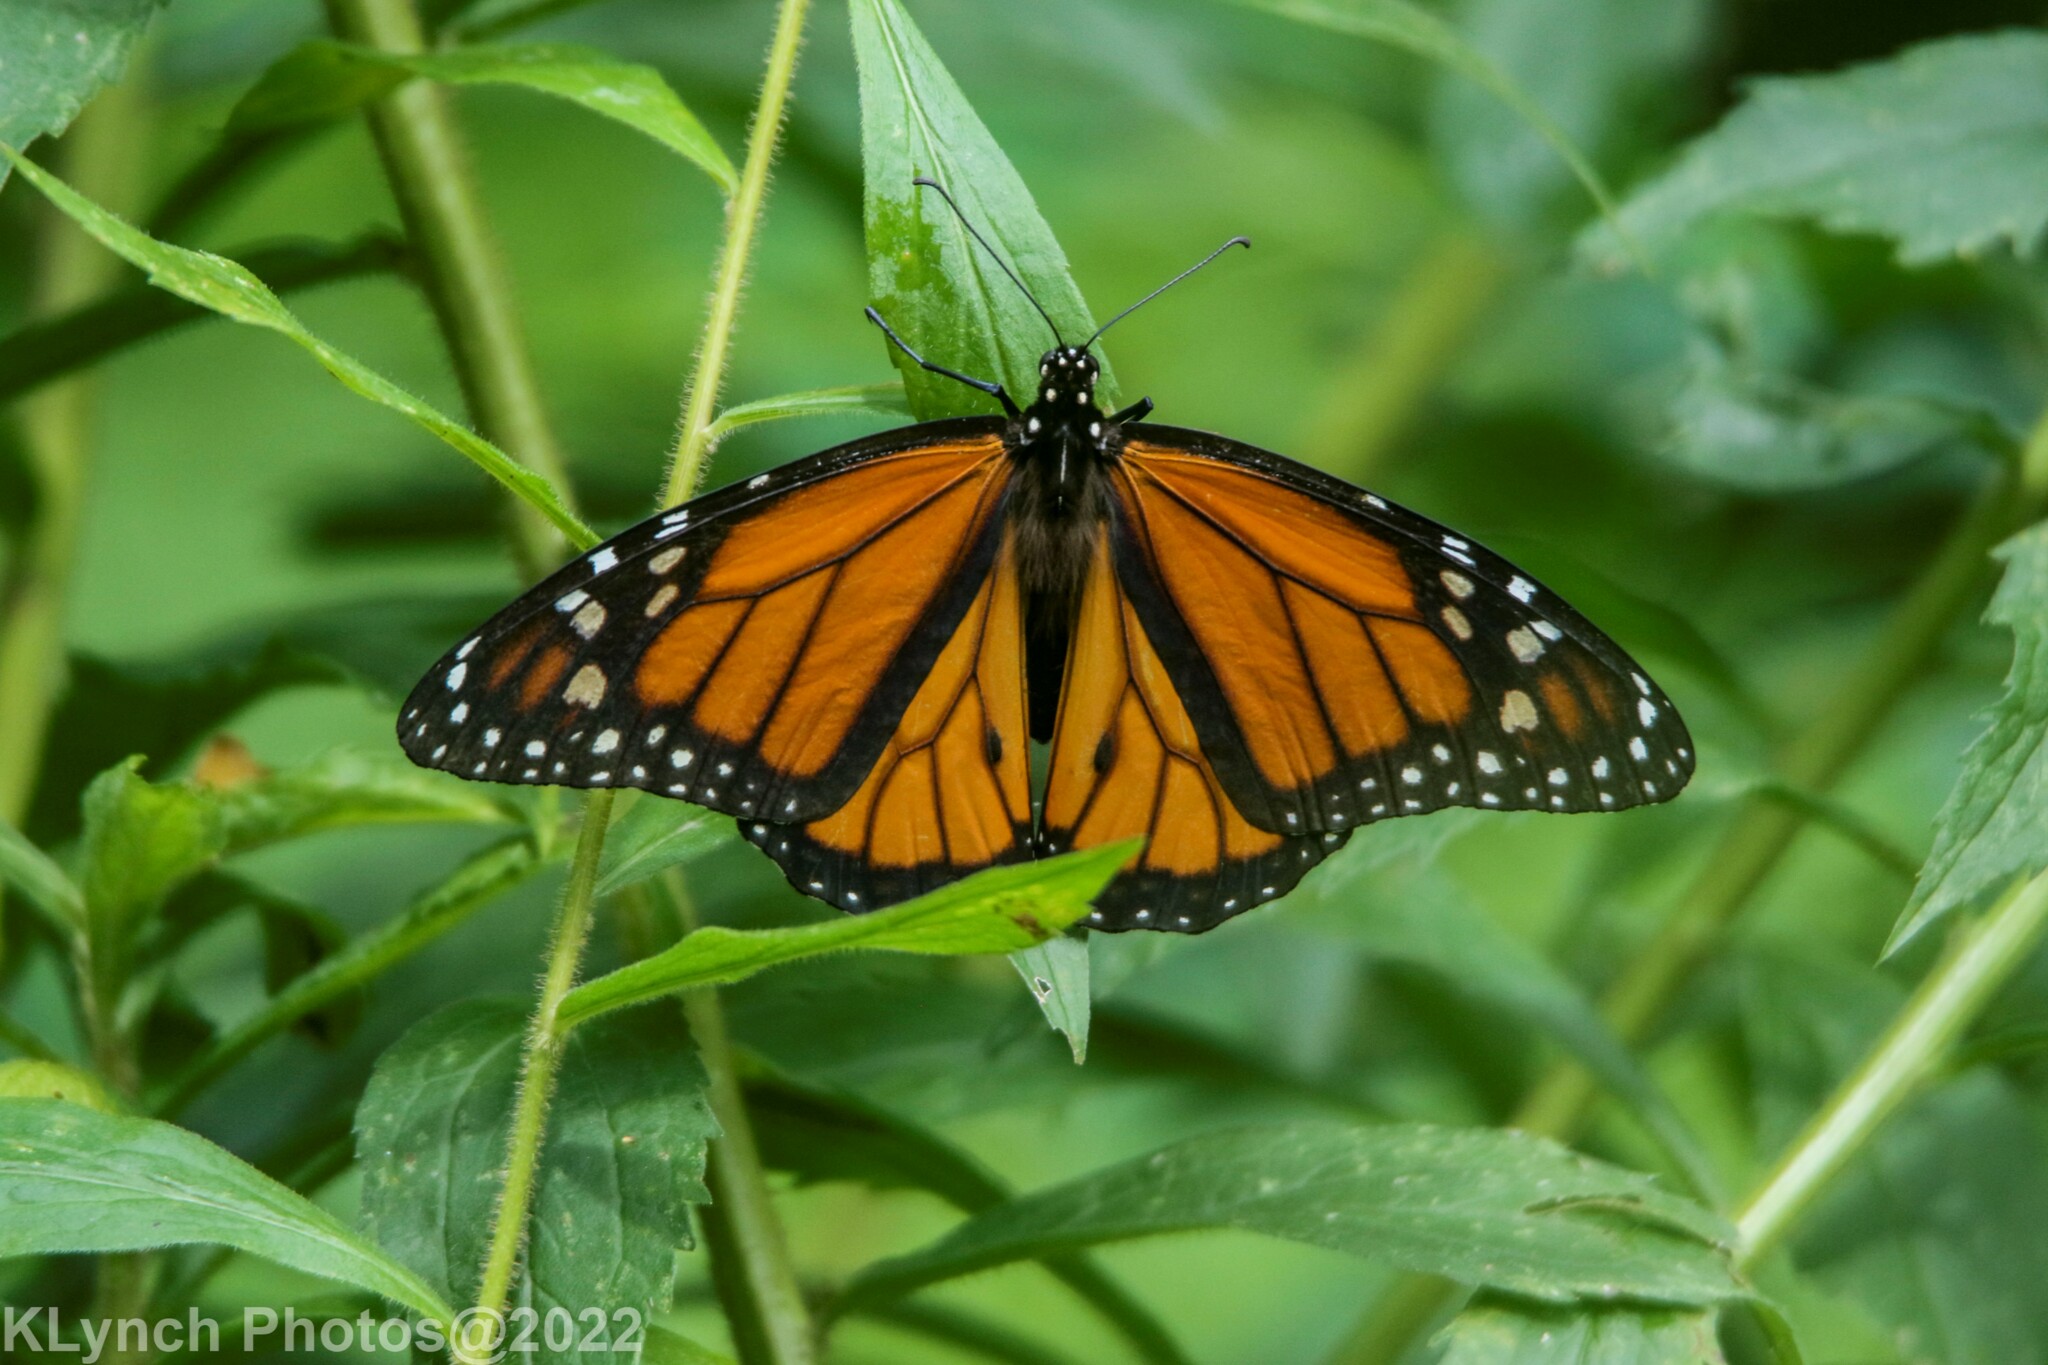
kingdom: Animalia
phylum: Arthropoda
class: Insecta
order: Lepidoptera
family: Nymphalidae
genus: Danaus
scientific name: Danaus plexippus
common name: Monarch
